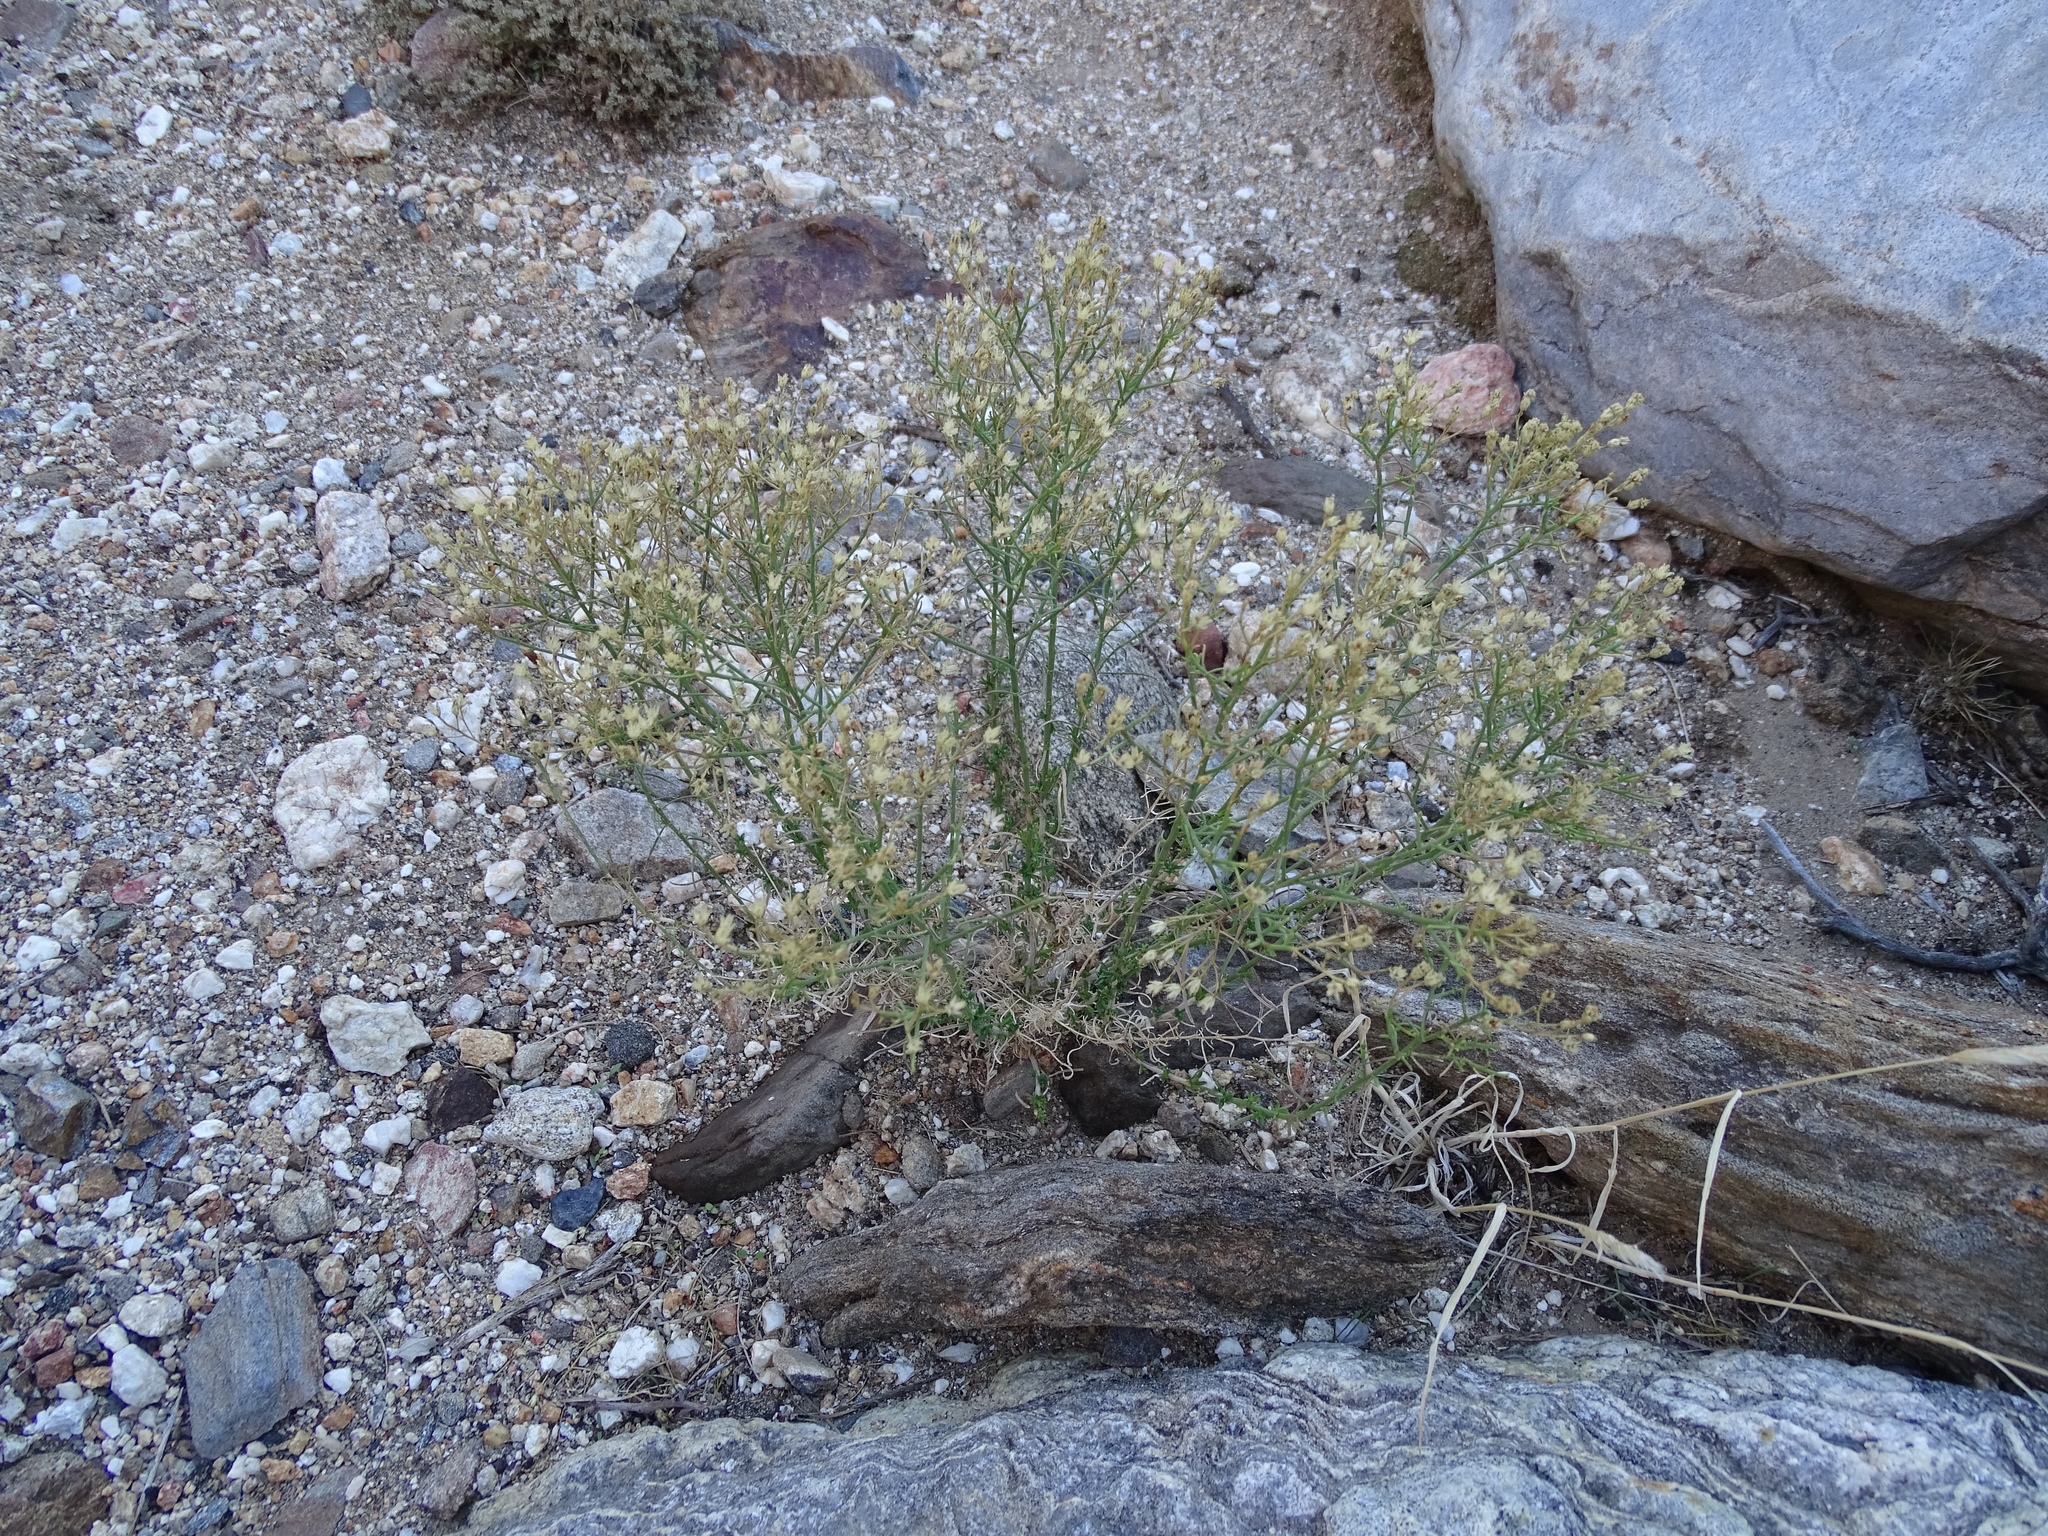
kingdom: Plantae
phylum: Tracheophyta
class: Magnoliopsida
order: Asterales
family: Asteraceae
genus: Gutierrezia
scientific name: Gutierrezia sarothrae
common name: Broom snakeweed
